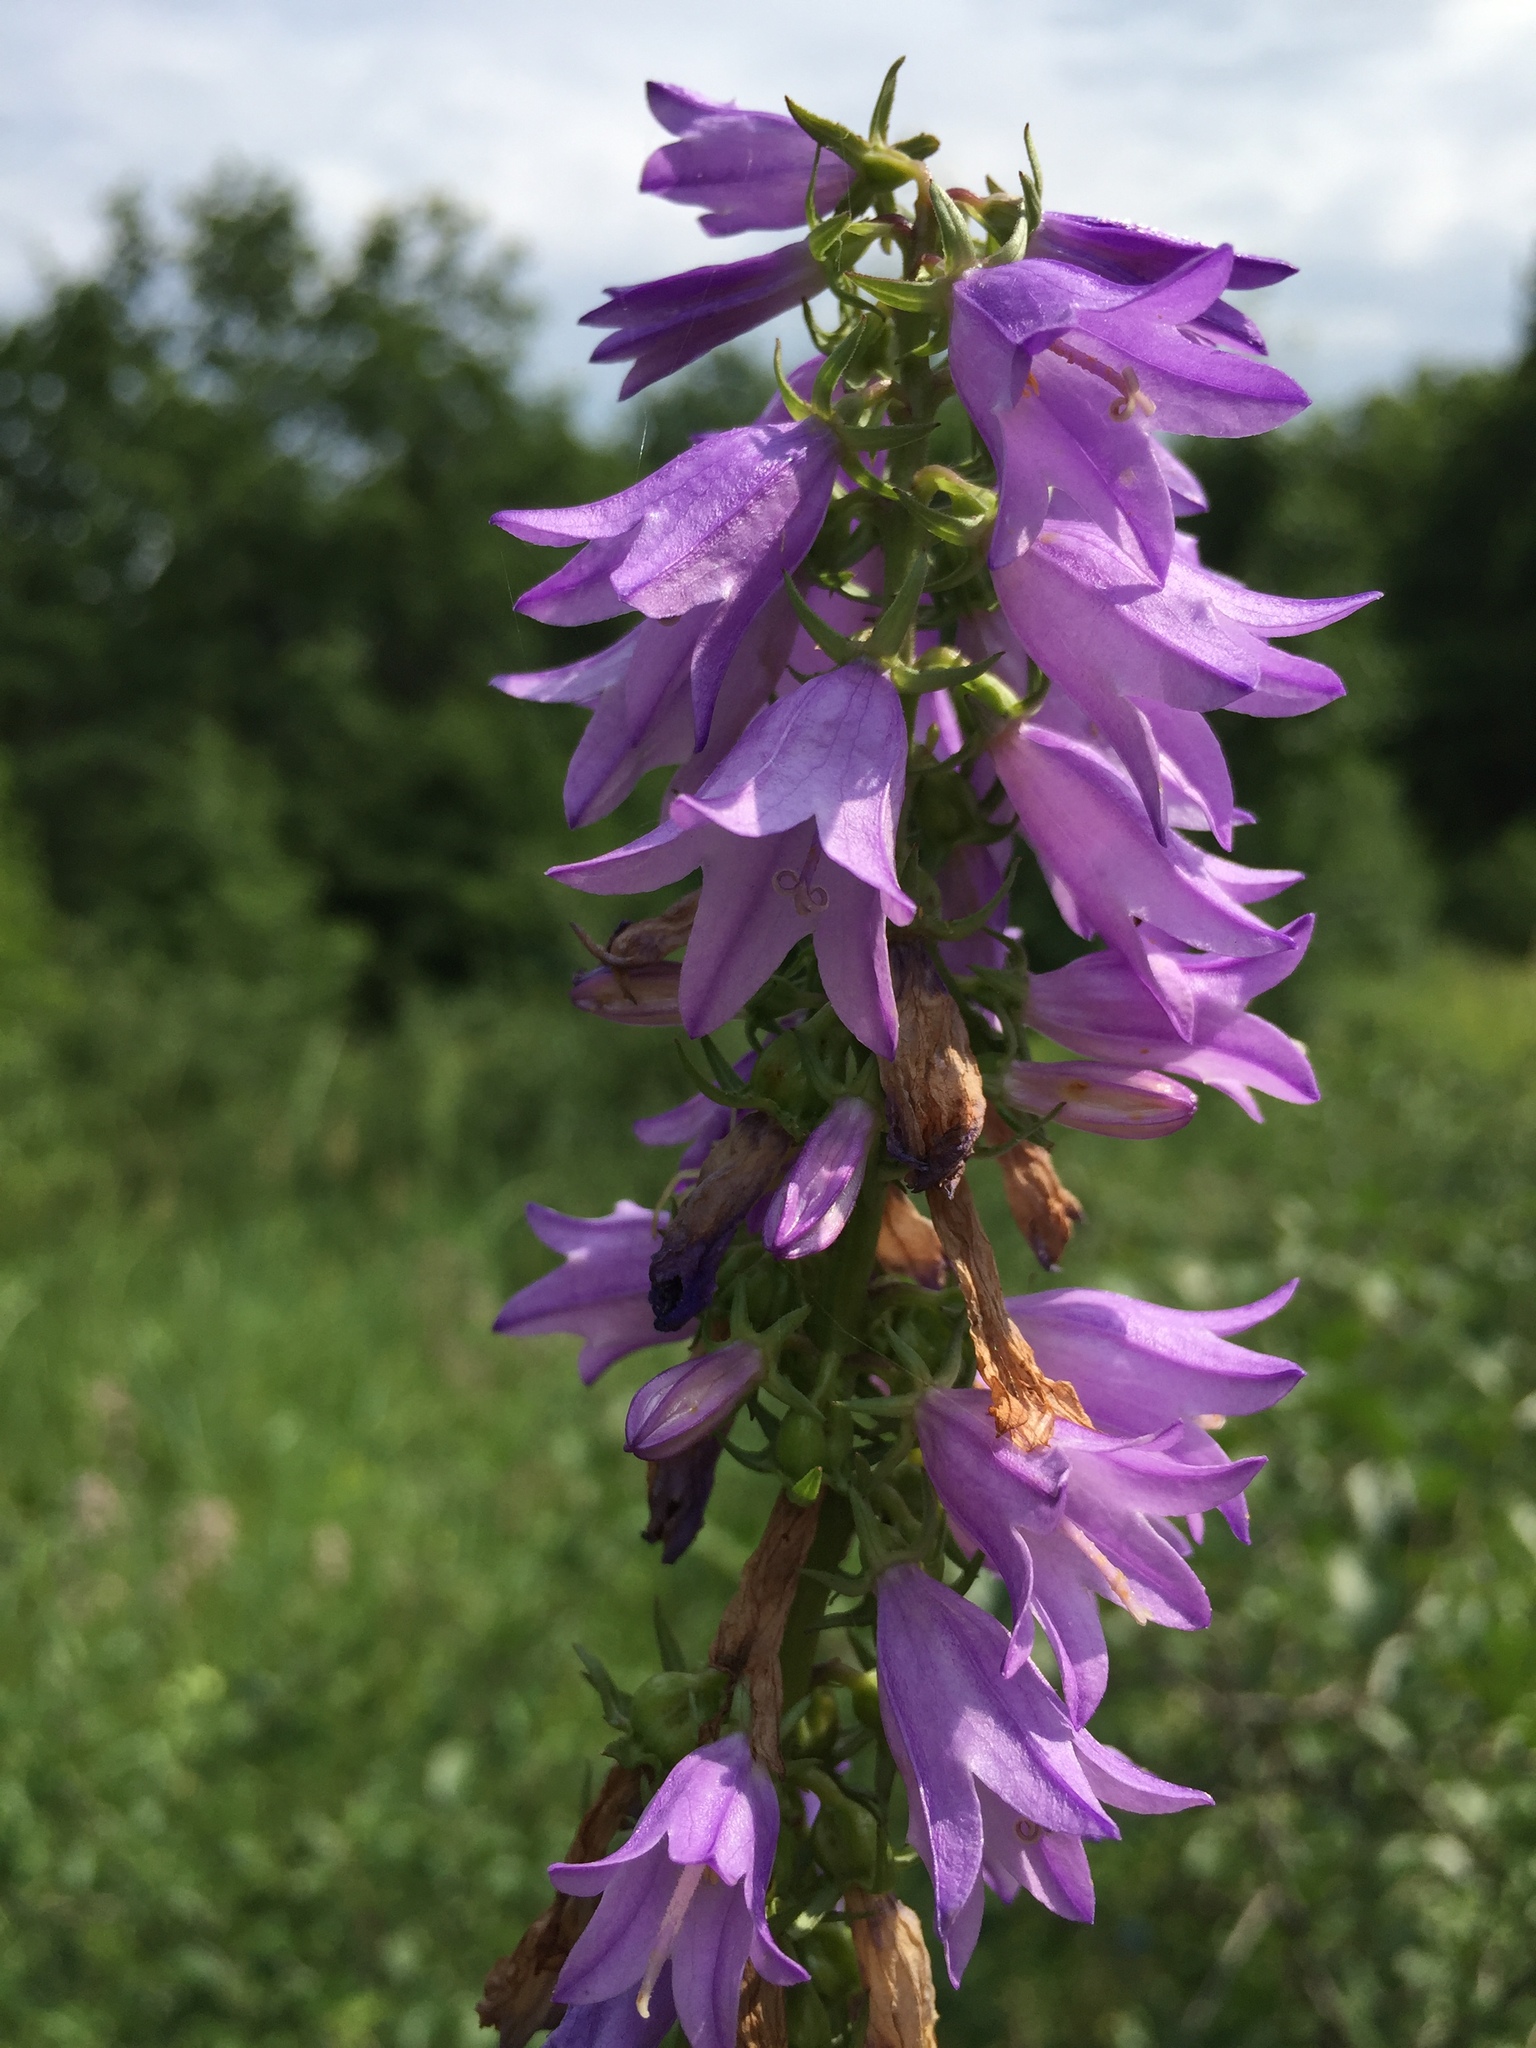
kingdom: Plantae
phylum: Tracheophyta
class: Magnoliopsida
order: Asterales
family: Campanulaceae
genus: Campanula
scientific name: Campanula rapunculoides
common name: Creeping bellflower
